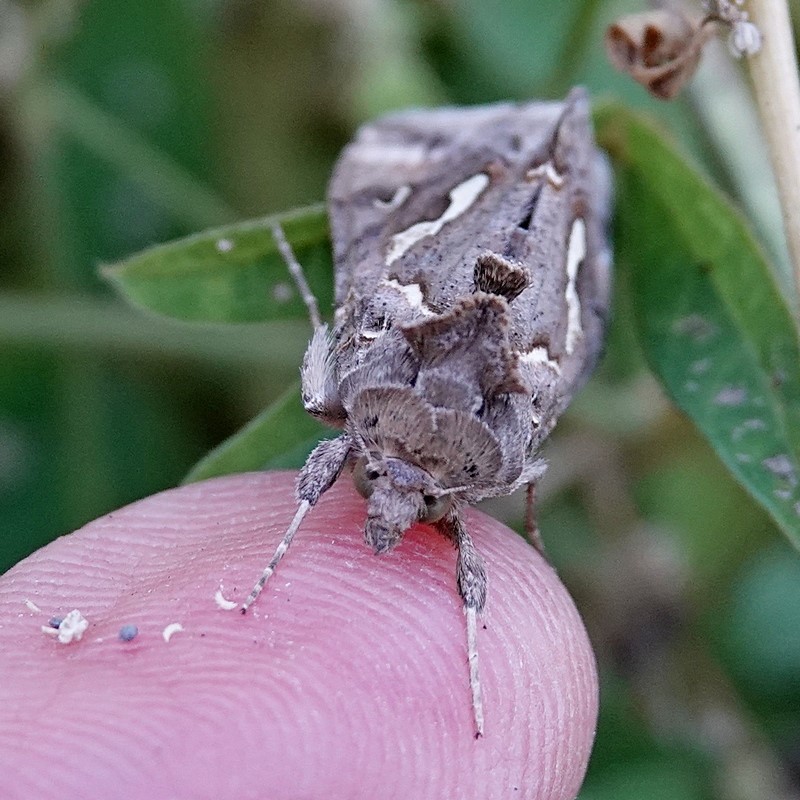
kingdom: Animalia
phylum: Arthropoda
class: Insecta
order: Lepidoptera
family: Noctuidae
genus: Chrysodeixis
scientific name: Chrysodeixis argentifera
